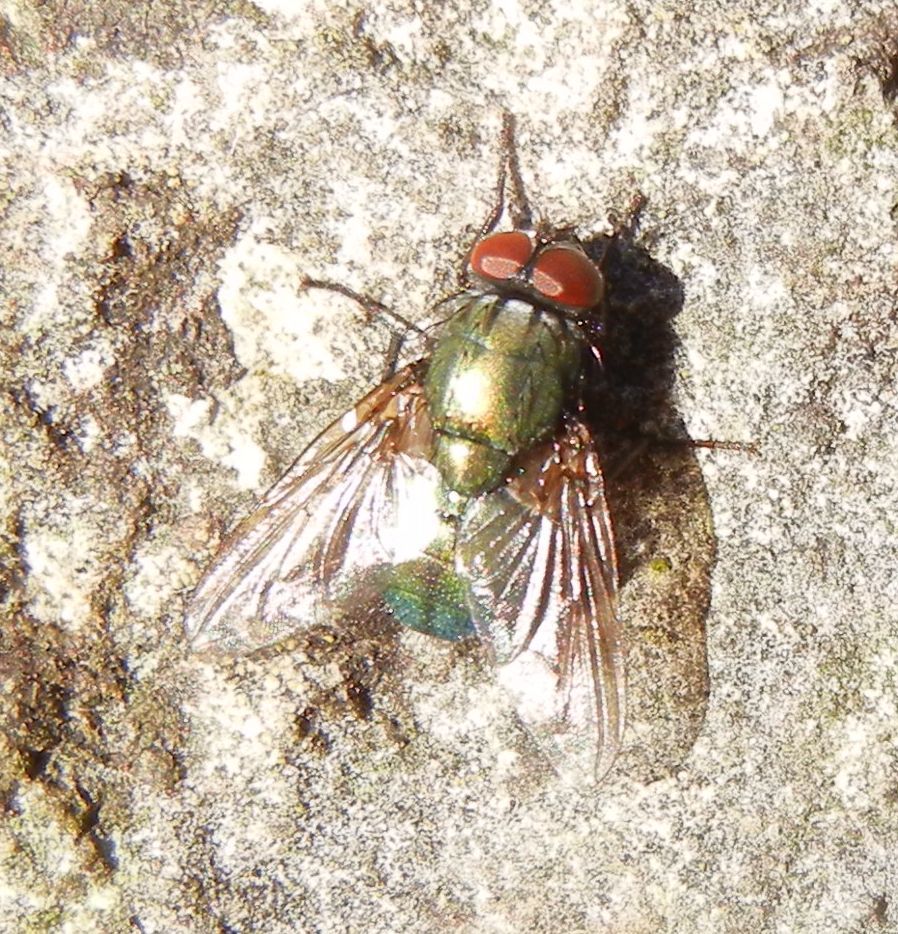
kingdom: Animalia
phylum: Arthropoda
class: Insecta
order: Diptera
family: Muscidae
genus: Dasyphora
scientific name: Dasyphora cyanella
